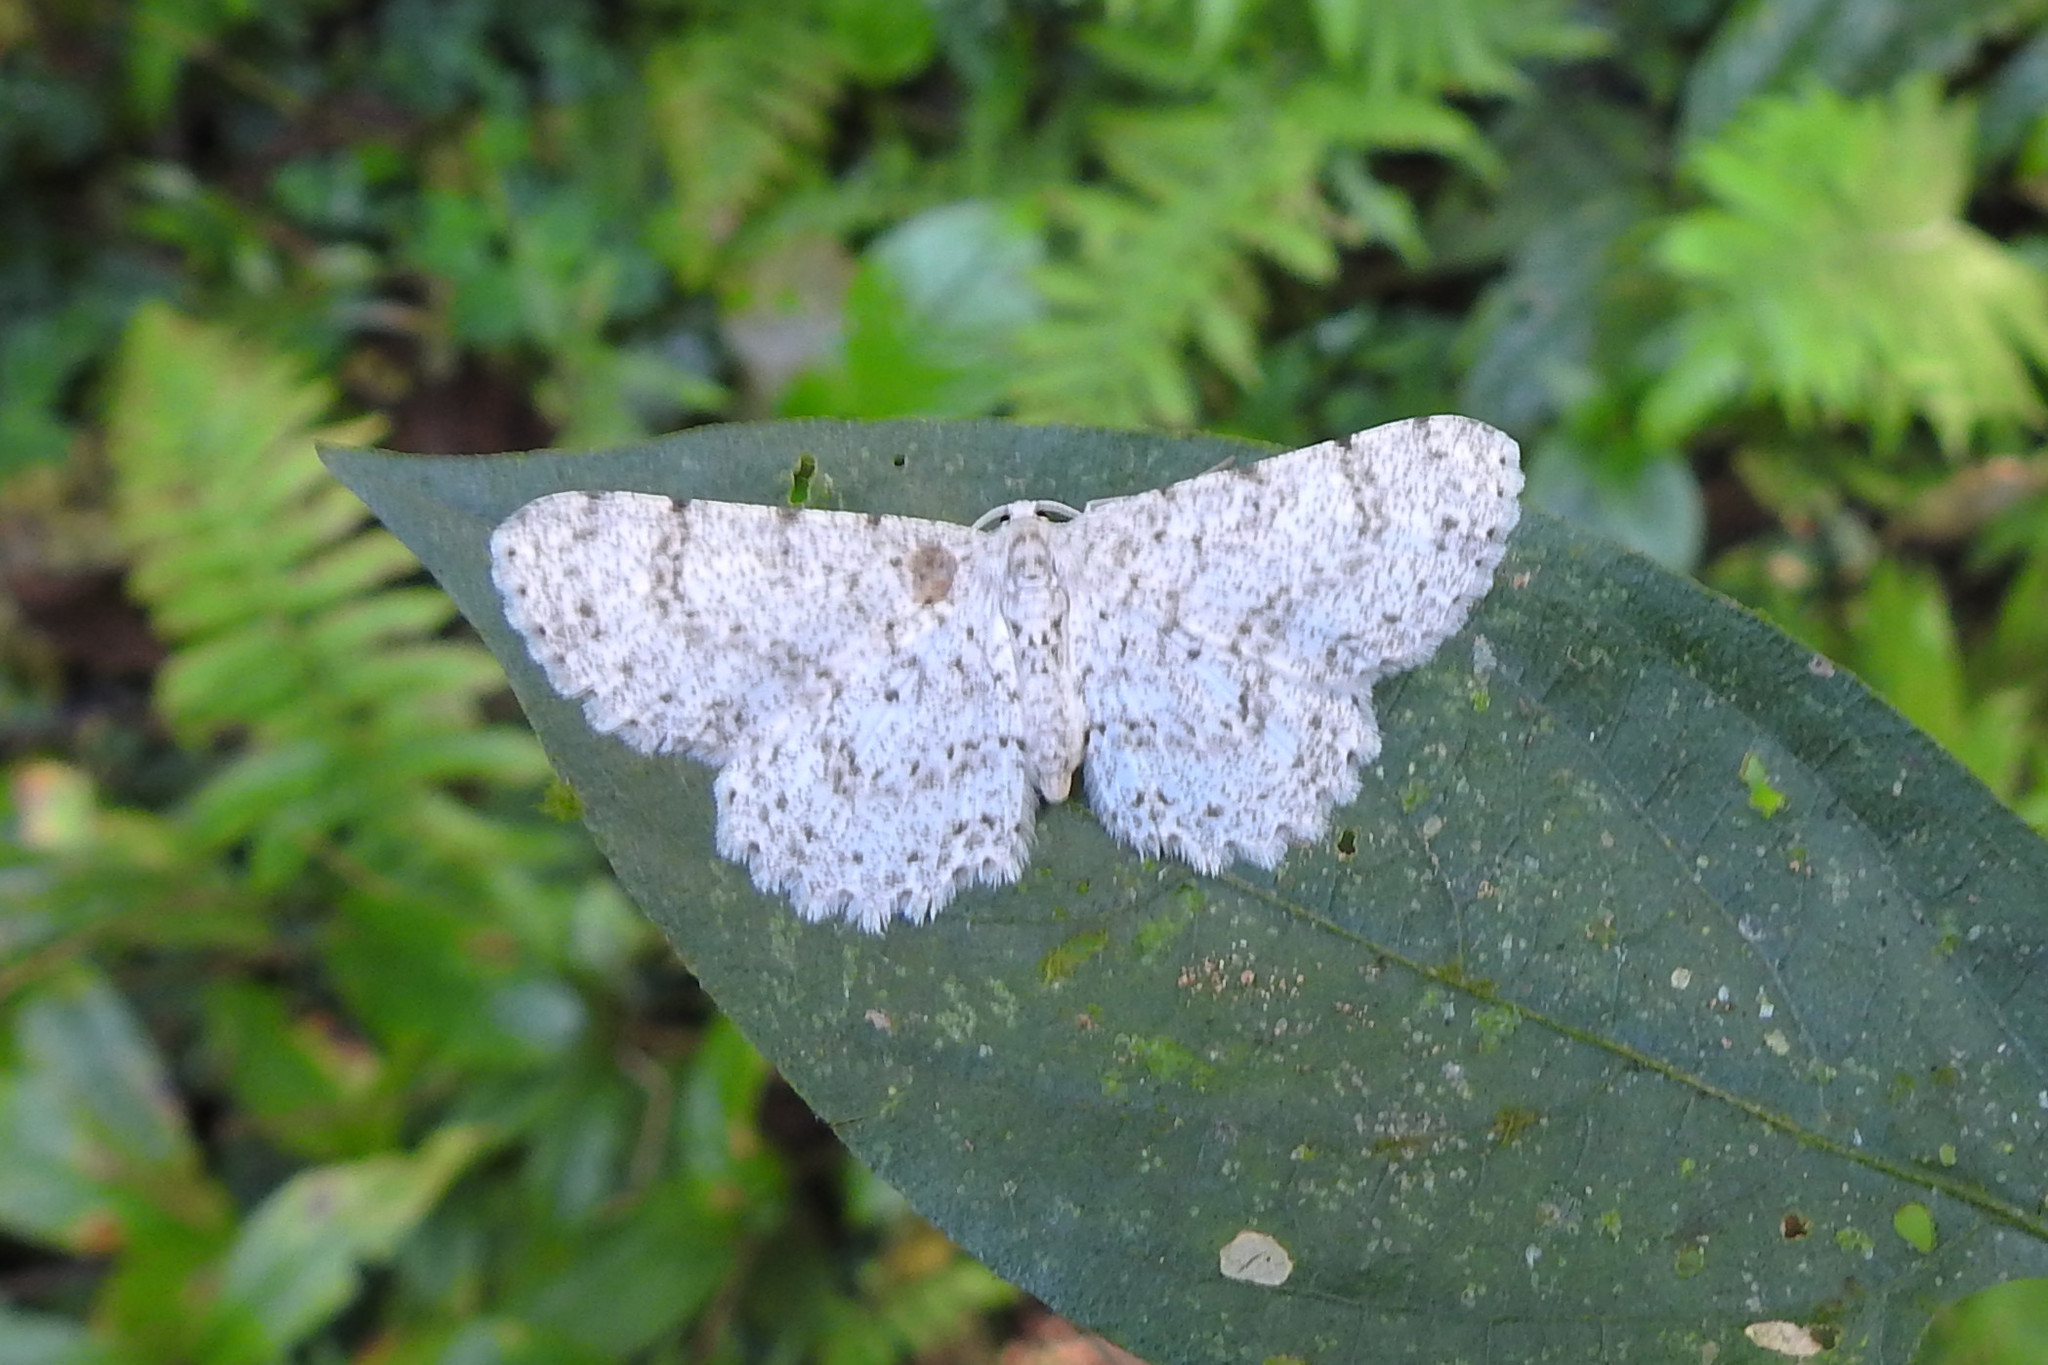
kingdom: Animalia
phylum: Arthropoda
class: Insecta
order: Lepidoptera
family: Geometridae
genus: Catoria
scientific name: Catoria sublavaria
